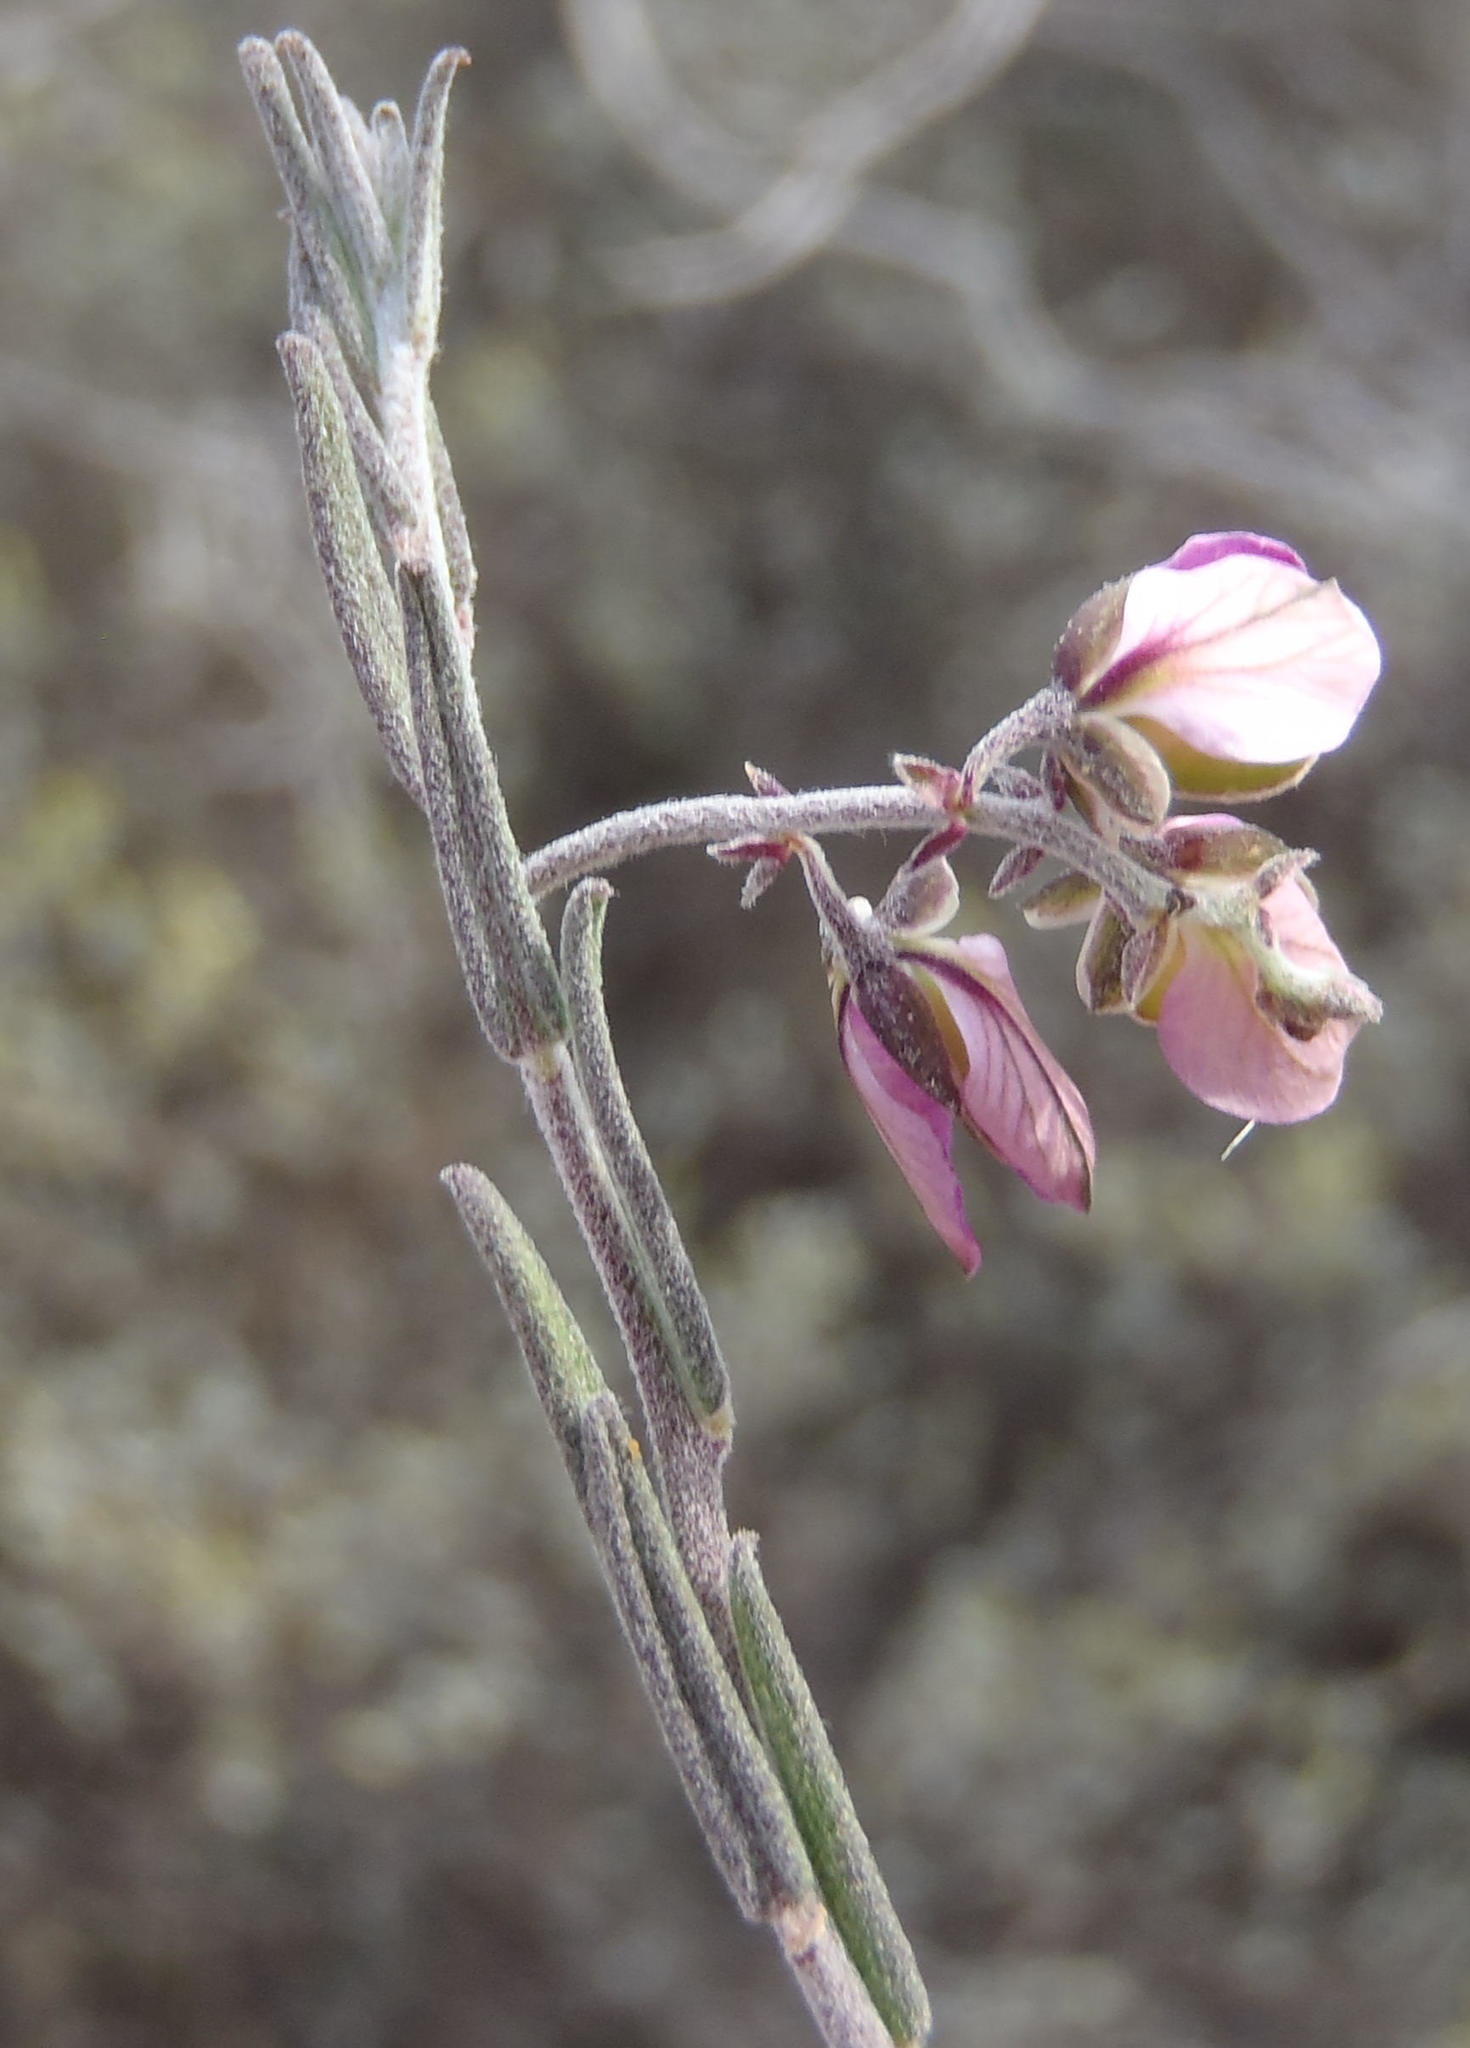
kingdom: Plantae
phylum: Tracheophyta
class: Magnoliopsida
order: Fabales
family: Polygalaceae
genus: Polygala
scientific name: Polygala scabra
